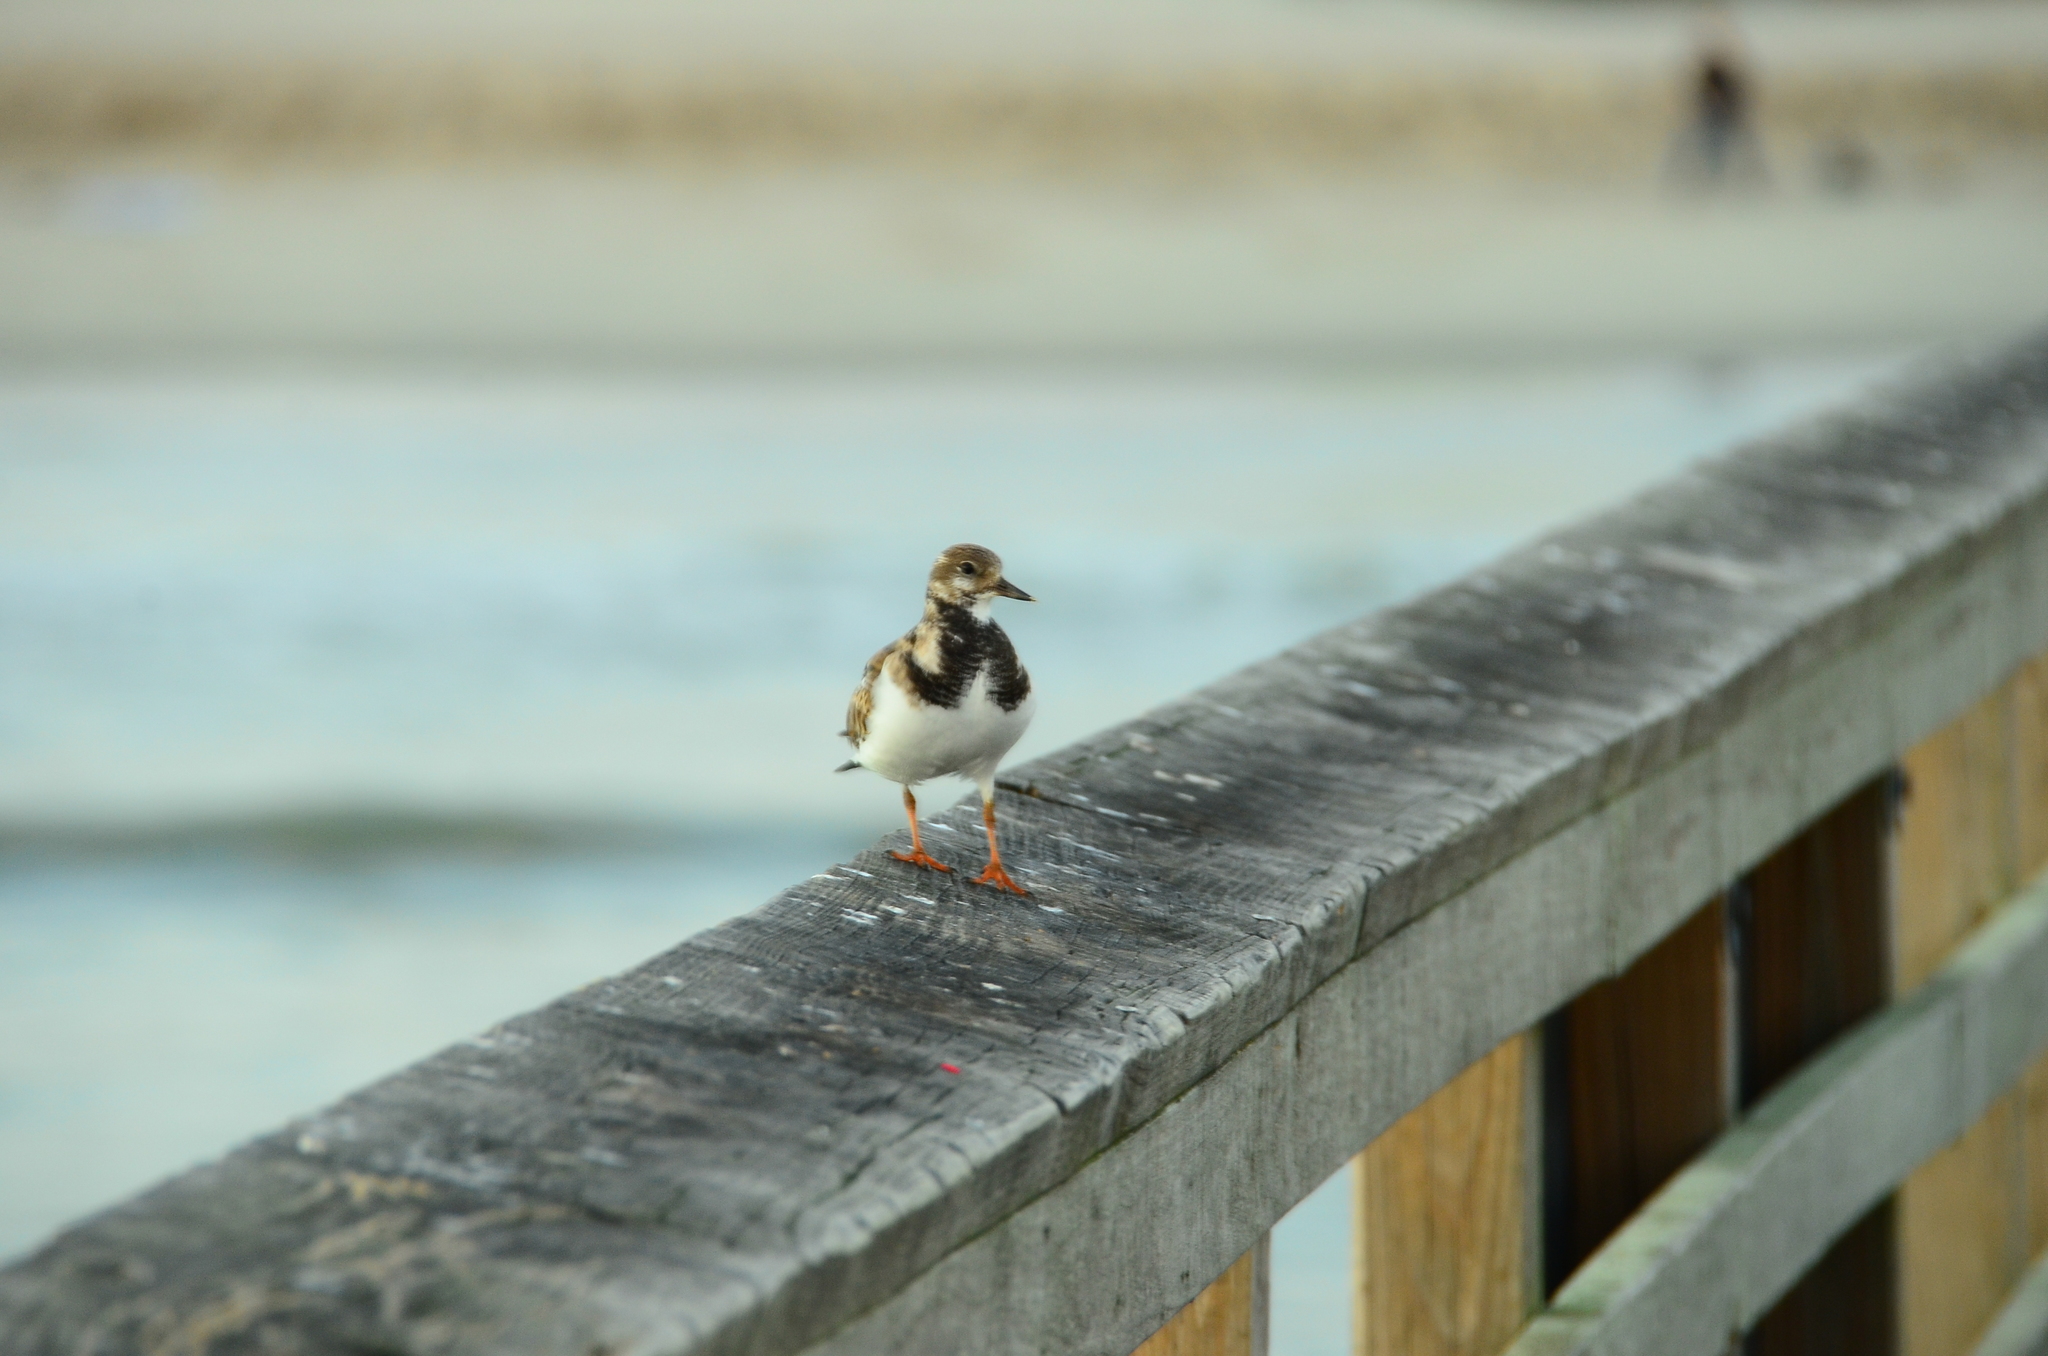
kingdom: Animalia
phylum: Chordata
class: Aves
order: Charadriiformes
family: Scolopacidae
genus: Arenaria
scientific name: Arenaria interpres
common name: Ruddy turnstone
